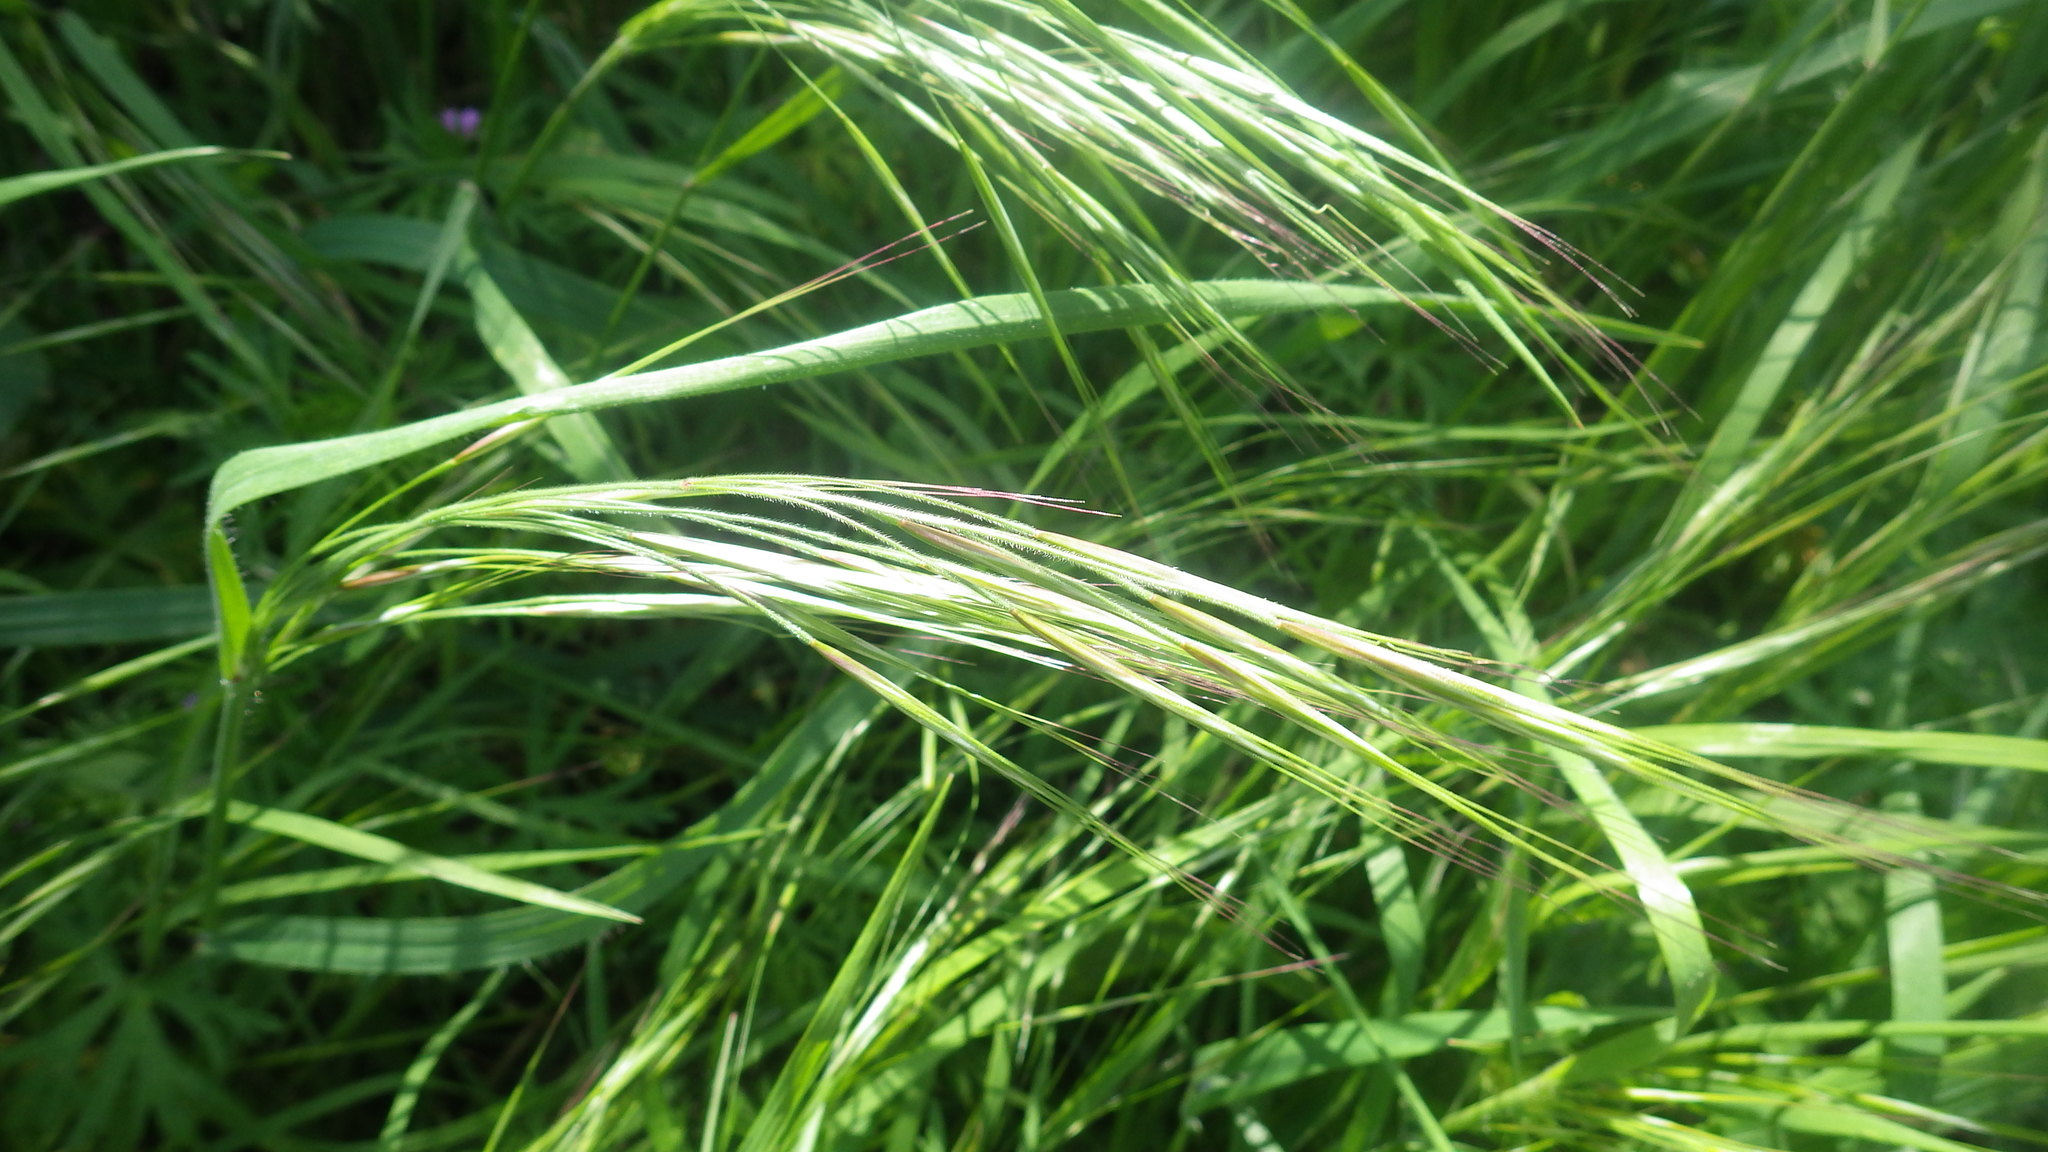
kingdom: Plantae
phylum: Tracheophyta
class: Liliopsida
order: Poales
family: Poaceae
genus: Bromus
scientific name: Bromus diandrus
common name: Ripgut brome
